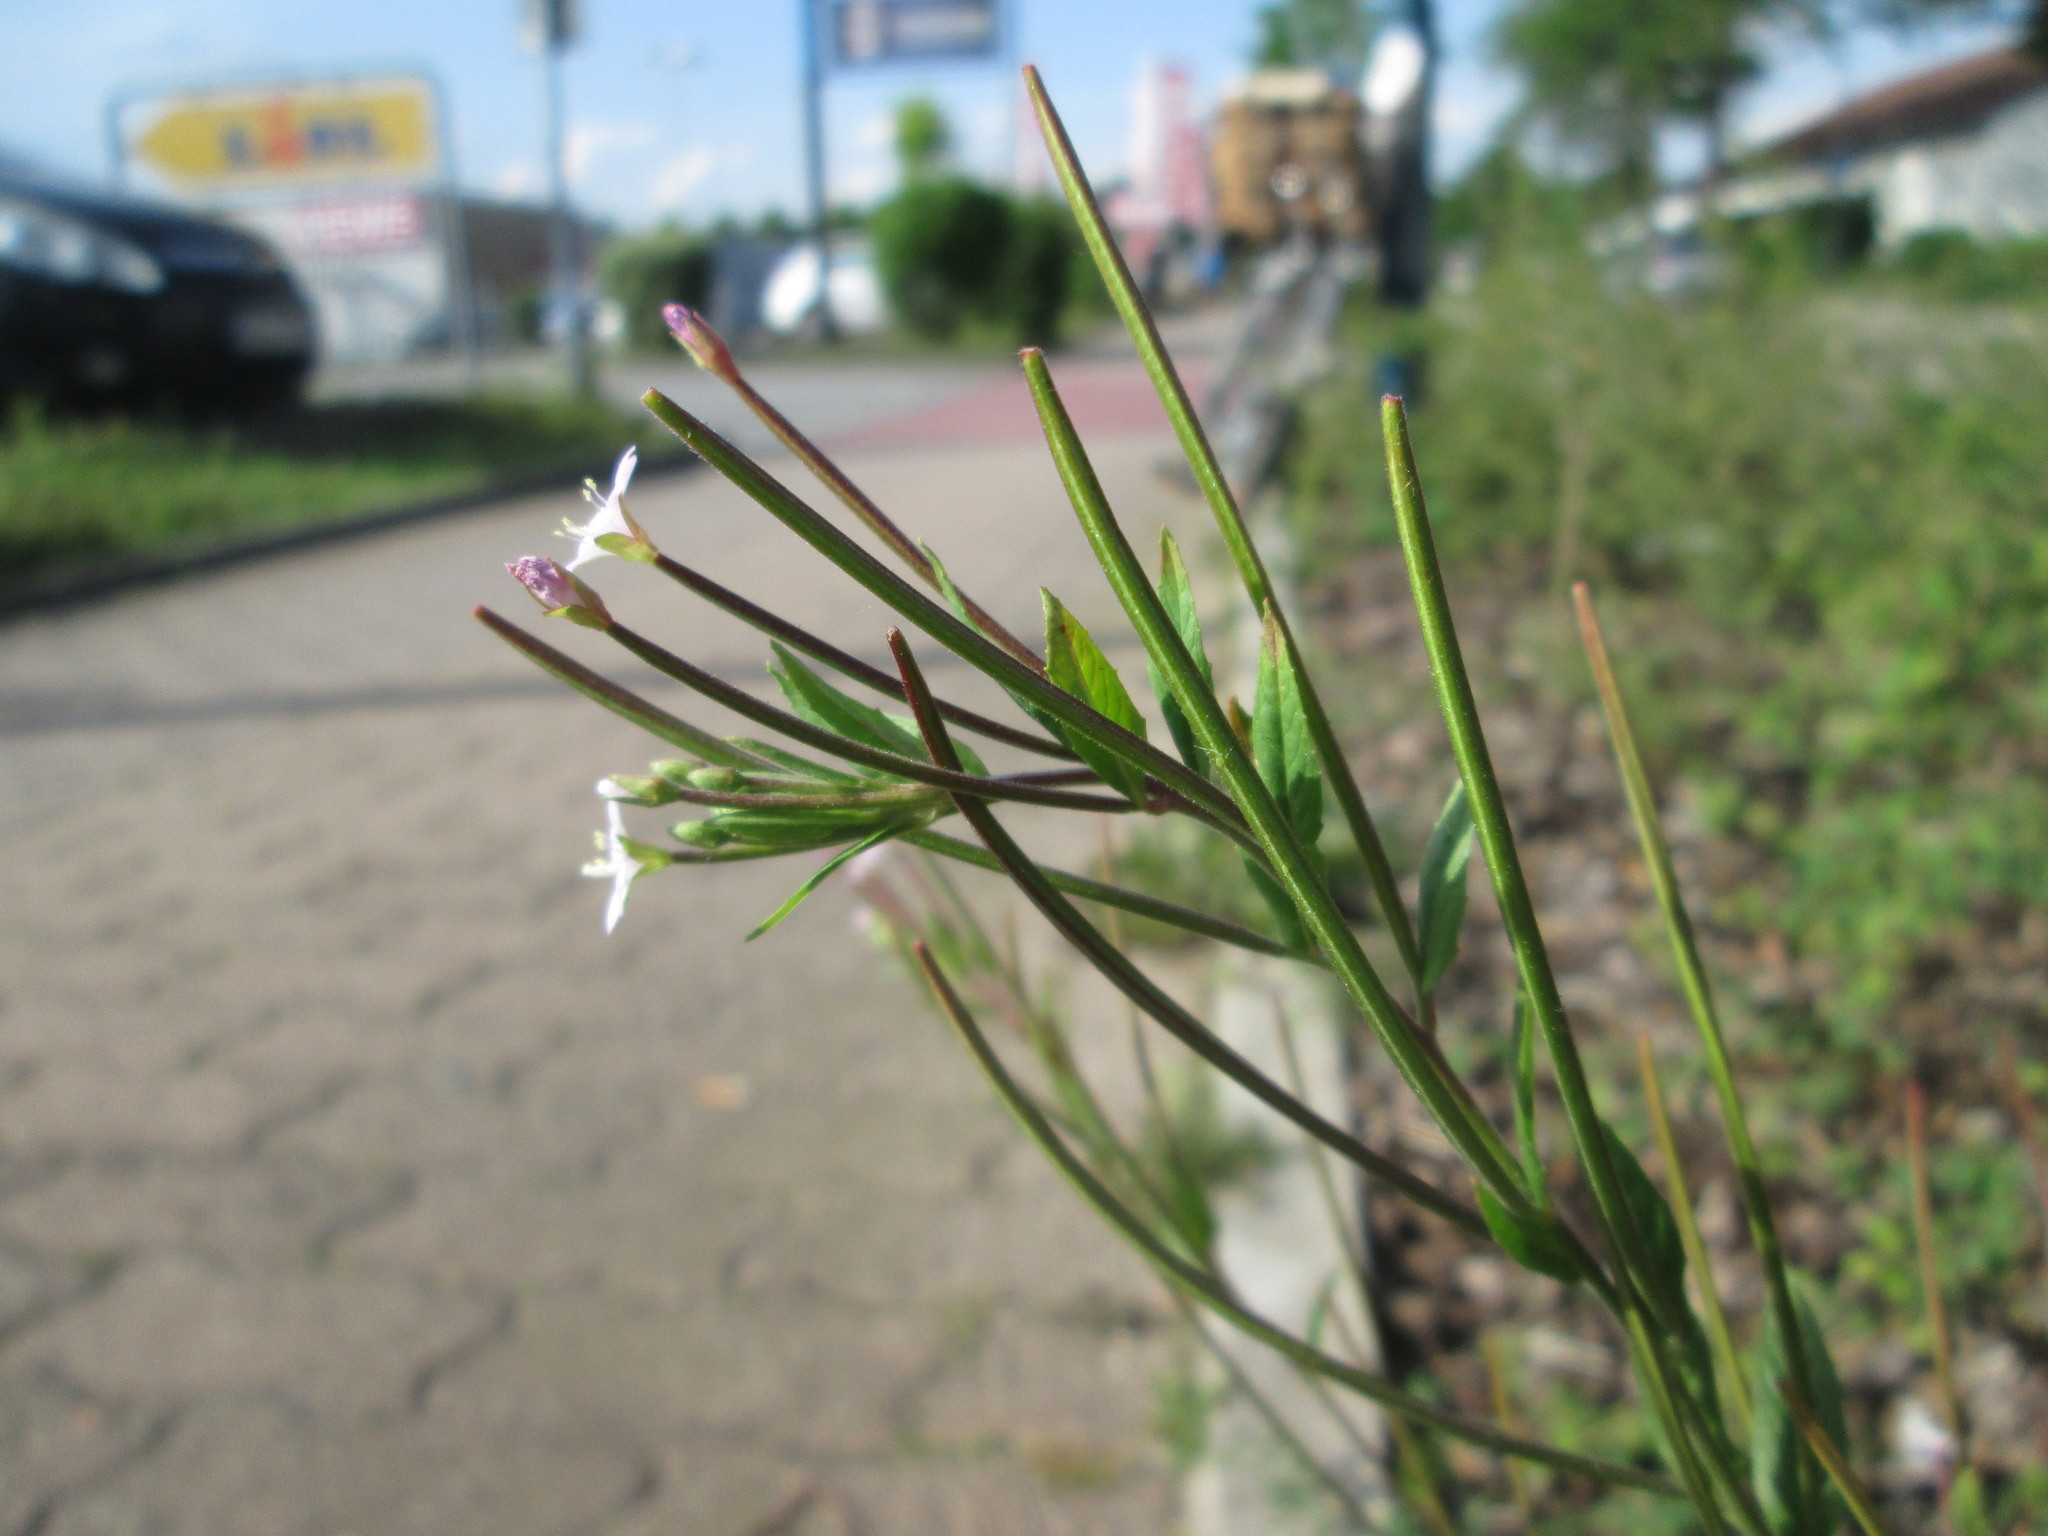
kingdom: Plantae
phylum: Tracheophyta
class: Magnoliopsida
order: Myrtales
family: Onagraceae
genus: Epilobium
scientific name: Epilobium ciliatum
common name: American willowherb
